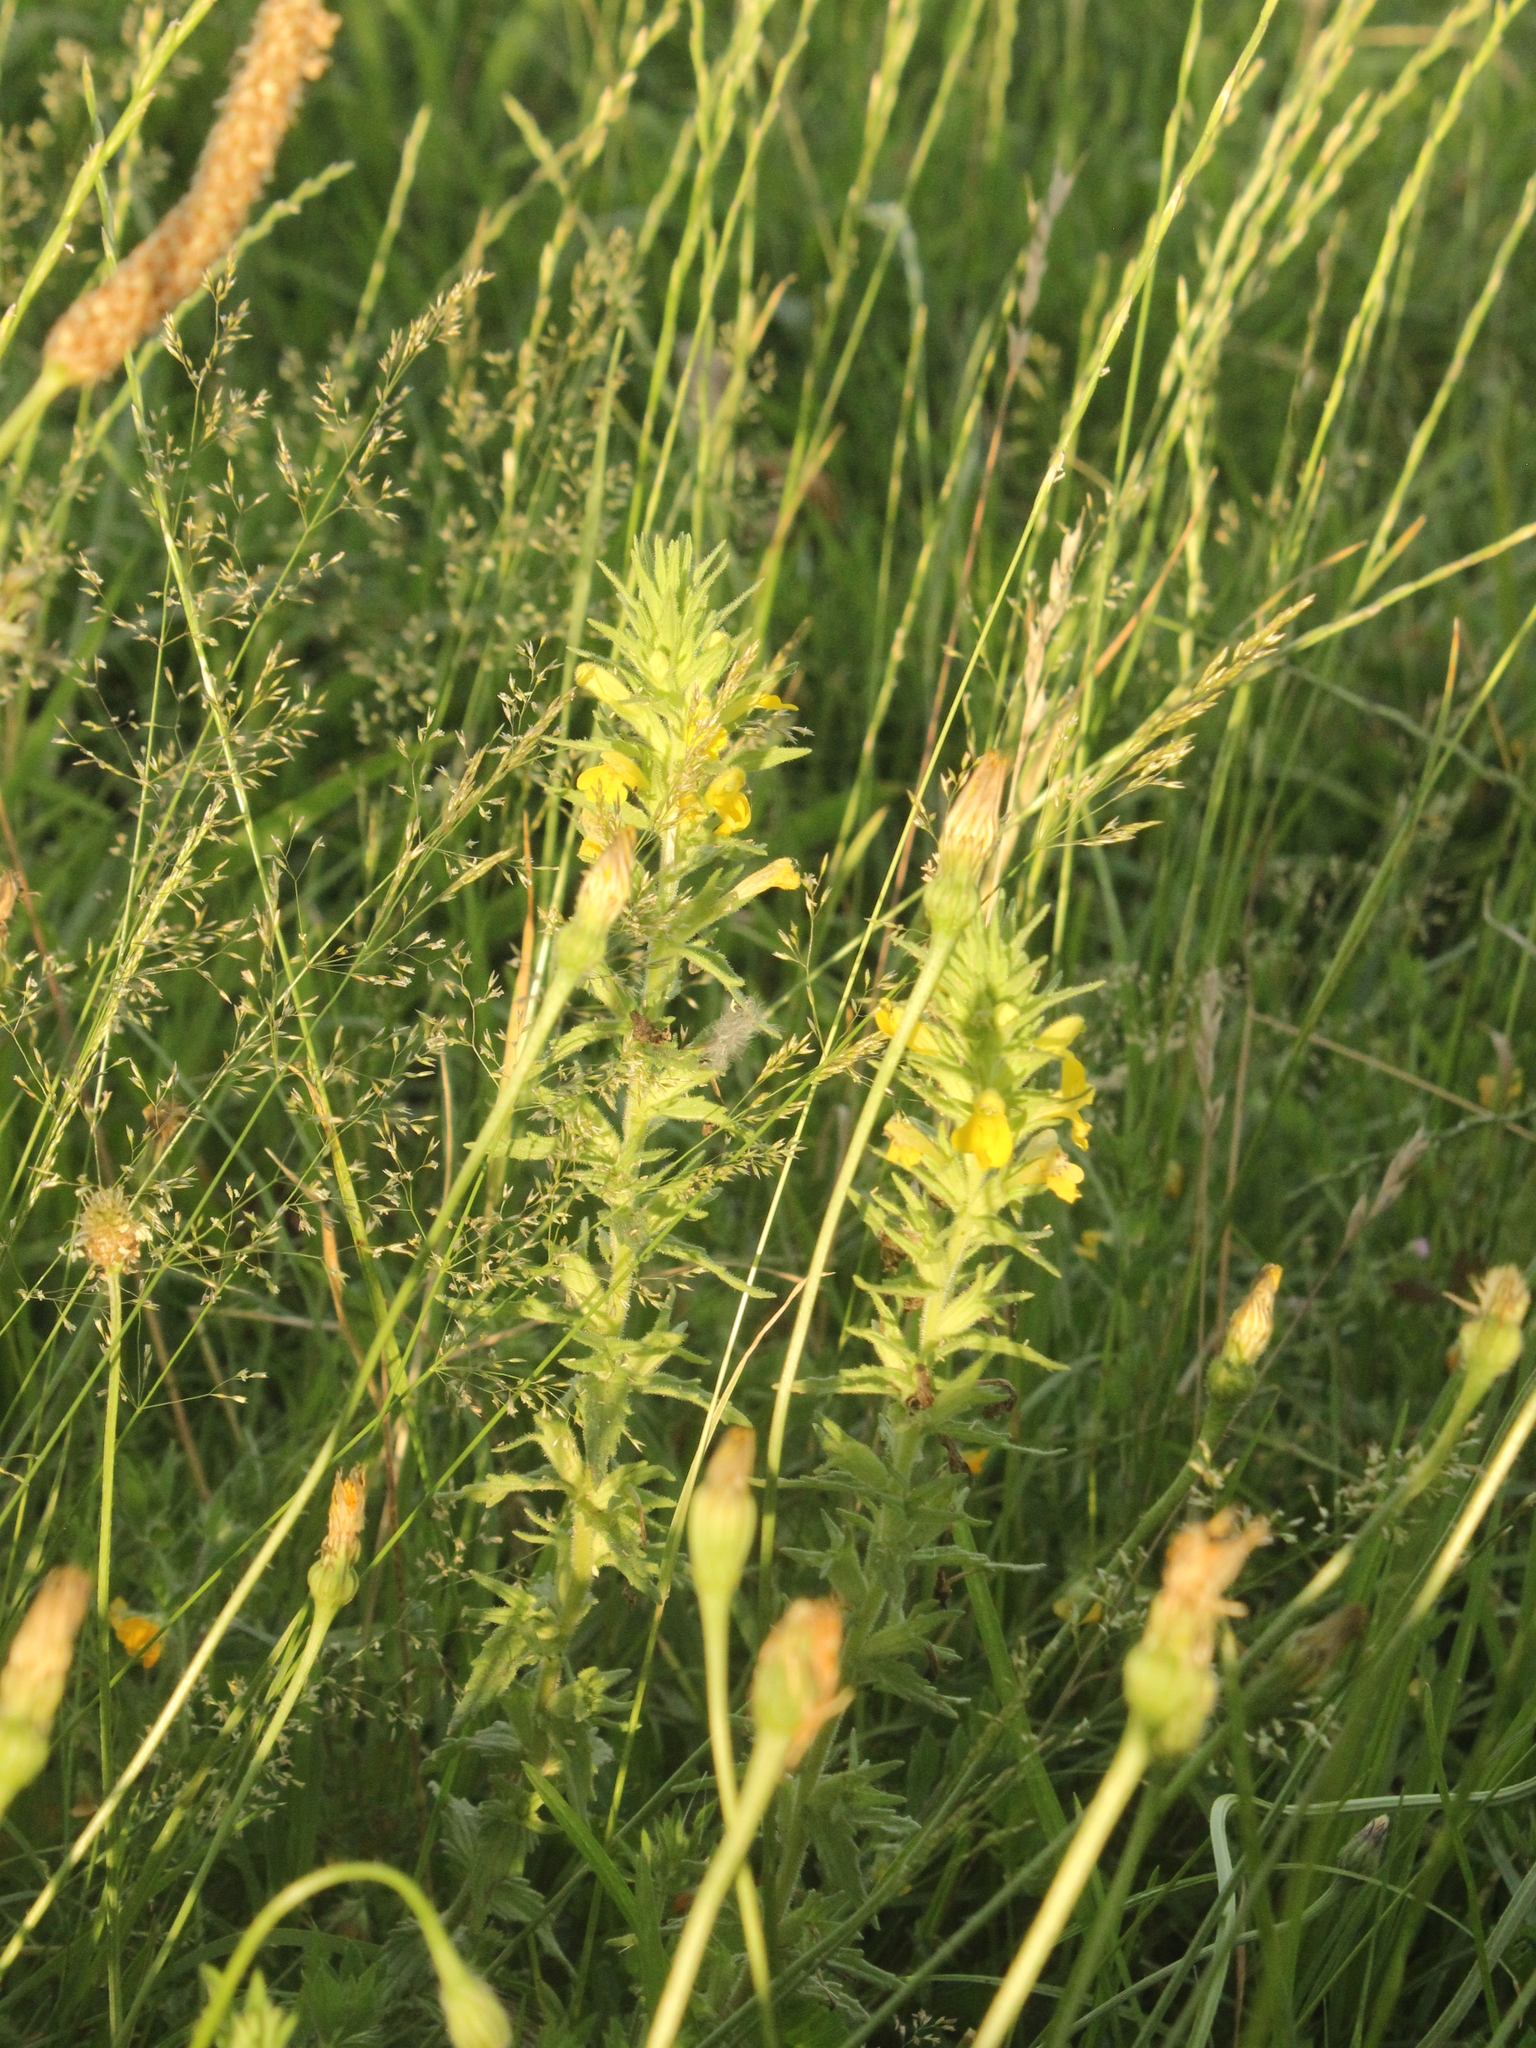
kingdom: Plantae
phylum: Tracheophyta
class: Magnoliopsida
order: Lamiales
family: Orobanchaceae
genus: Bellardia
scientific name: Bellardia viscosa
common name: Sticky parentucellia
